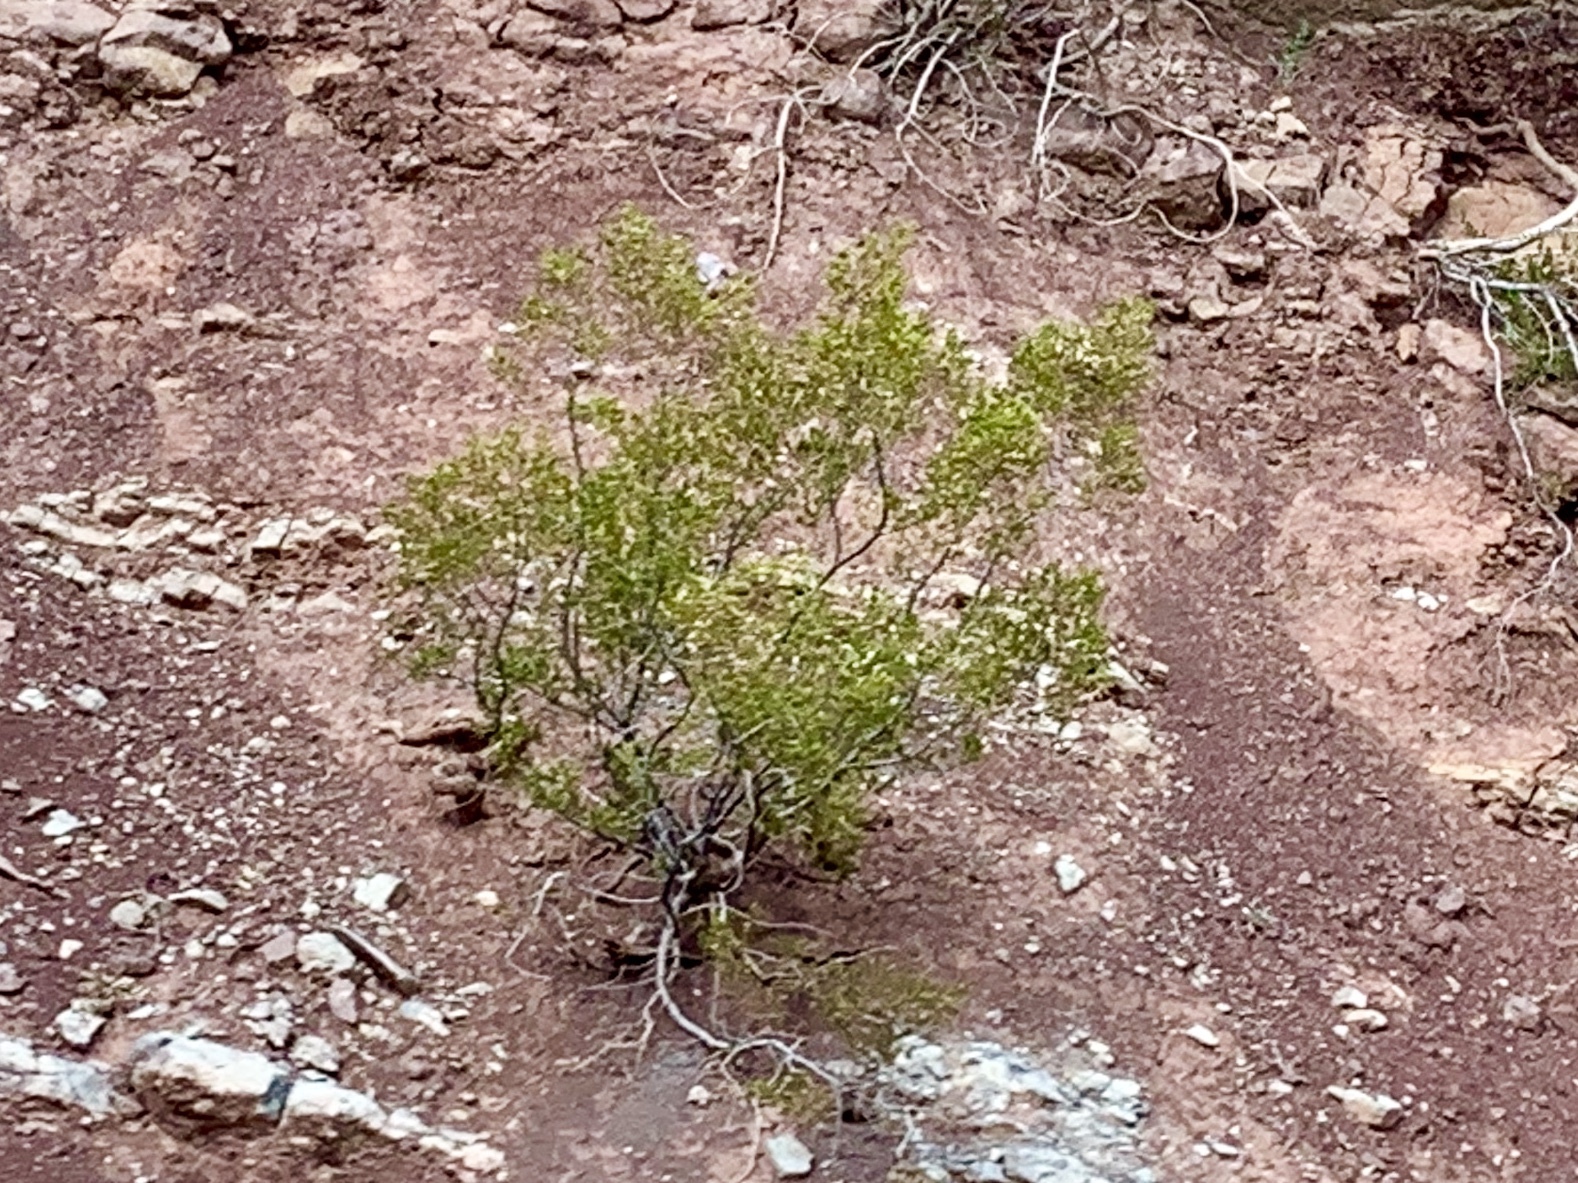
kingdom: Plantae
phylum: Tracheophyta
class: Magnoliopsida
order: Zygophyllales
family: Zygophyllaceae
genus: Larrea
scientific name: Larrea tridentata
